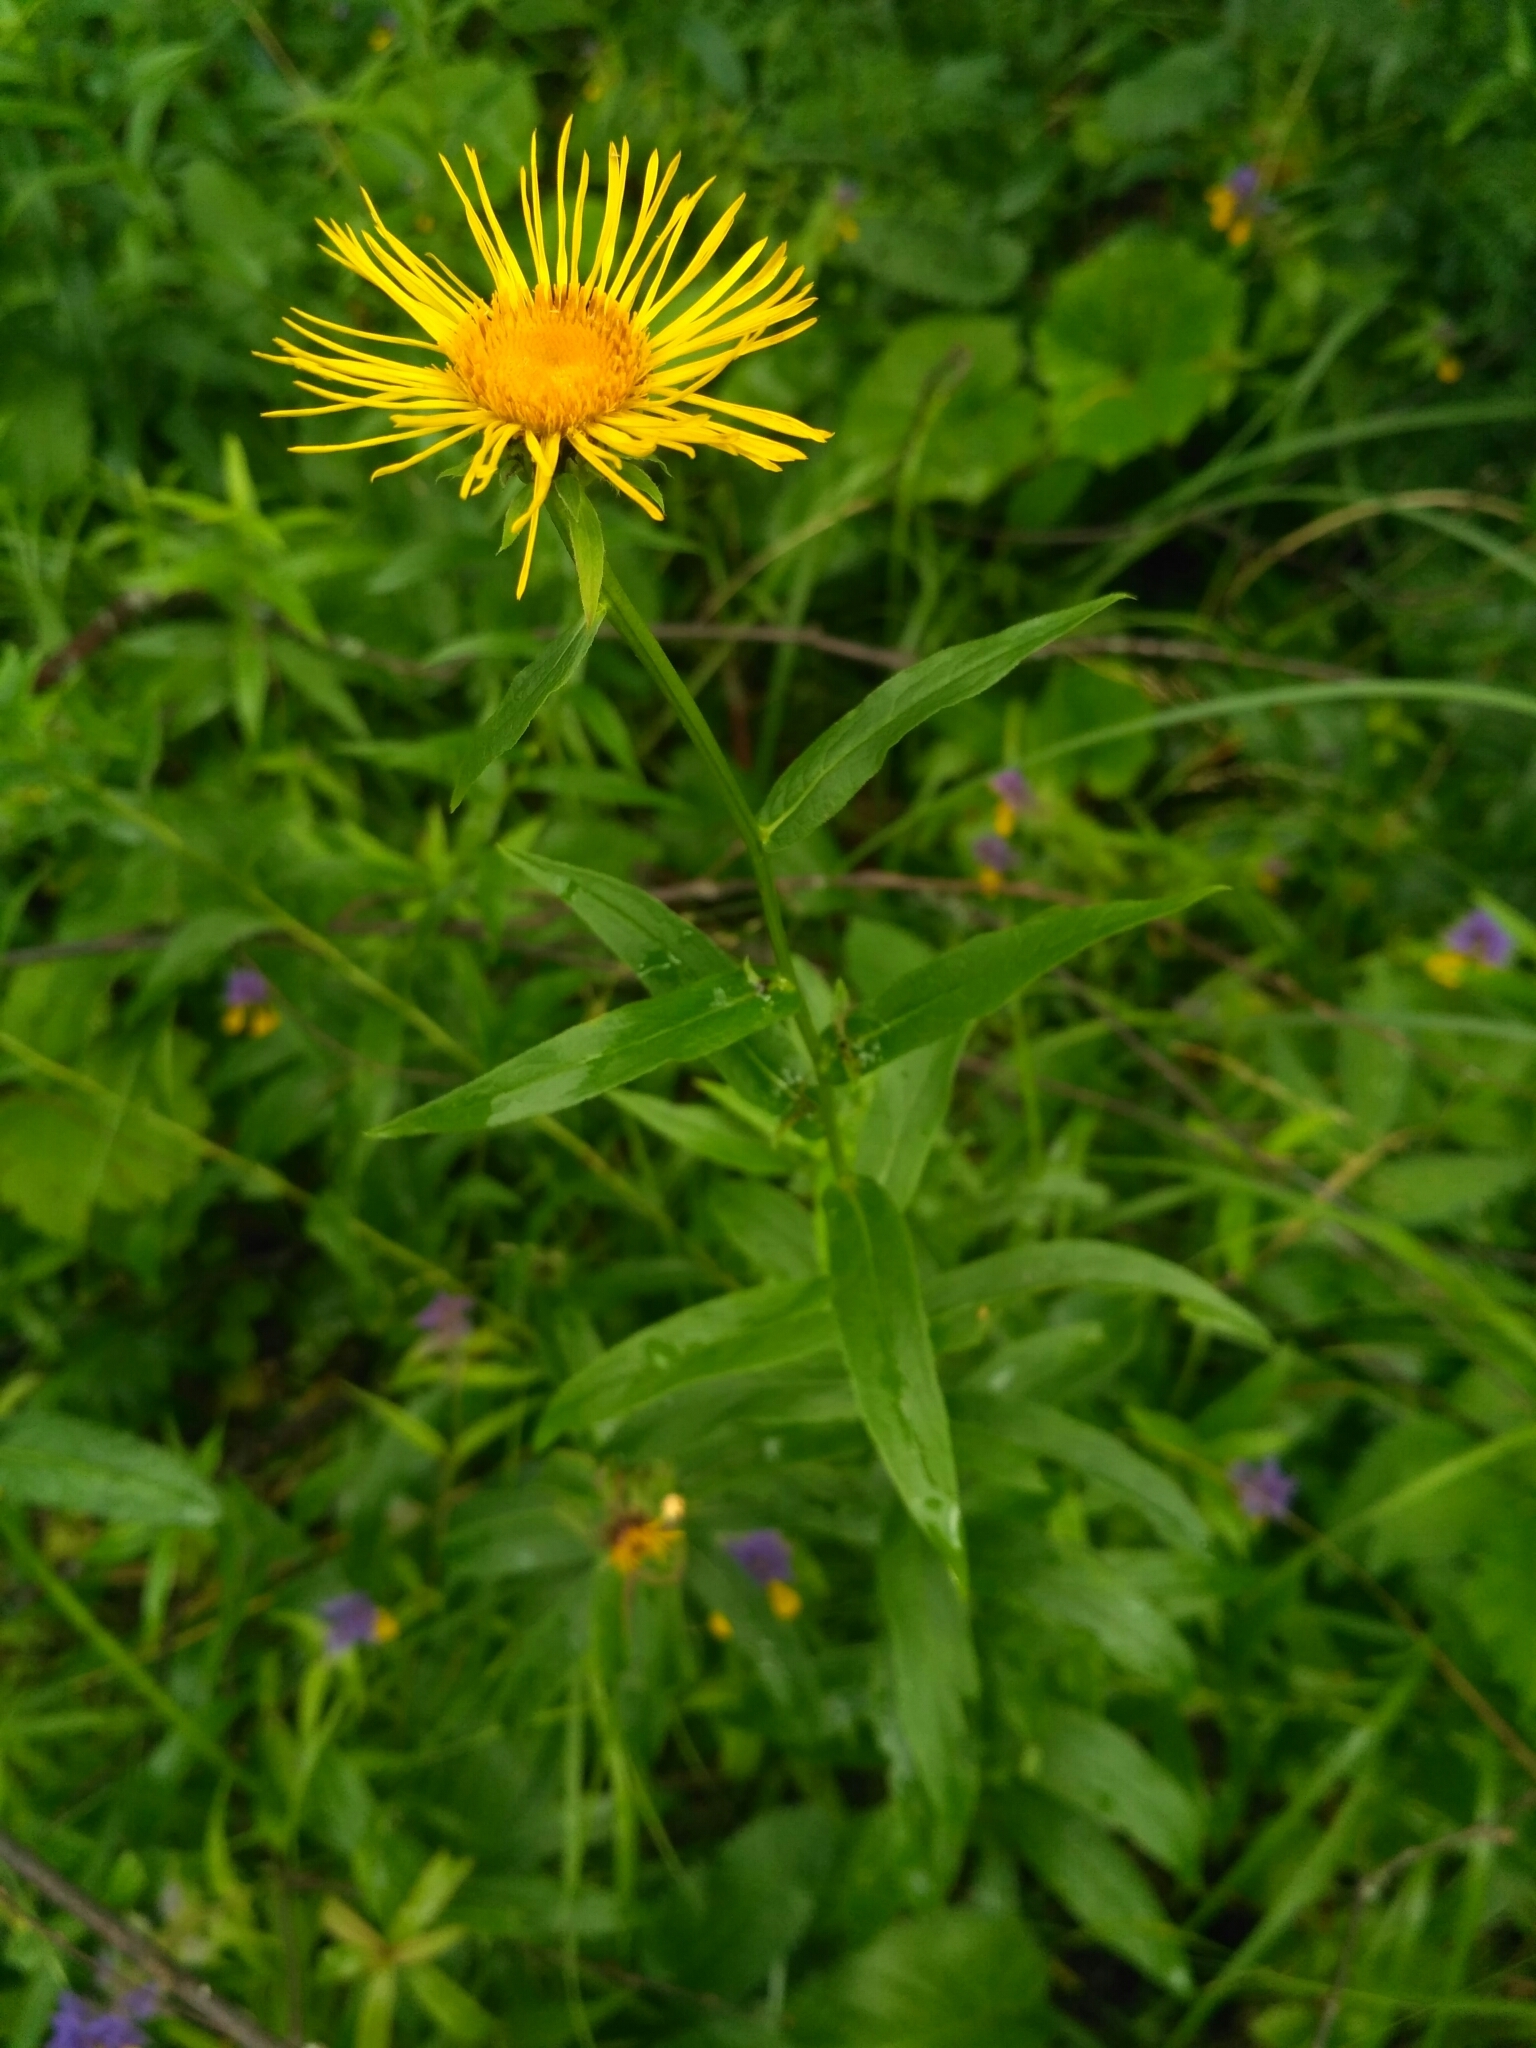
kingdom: Plantae
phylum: Tracheophyta
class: Magnoliopsida
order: Asterales
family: Asteraceae
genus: Pentanema
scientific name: Pentanema salicinum
